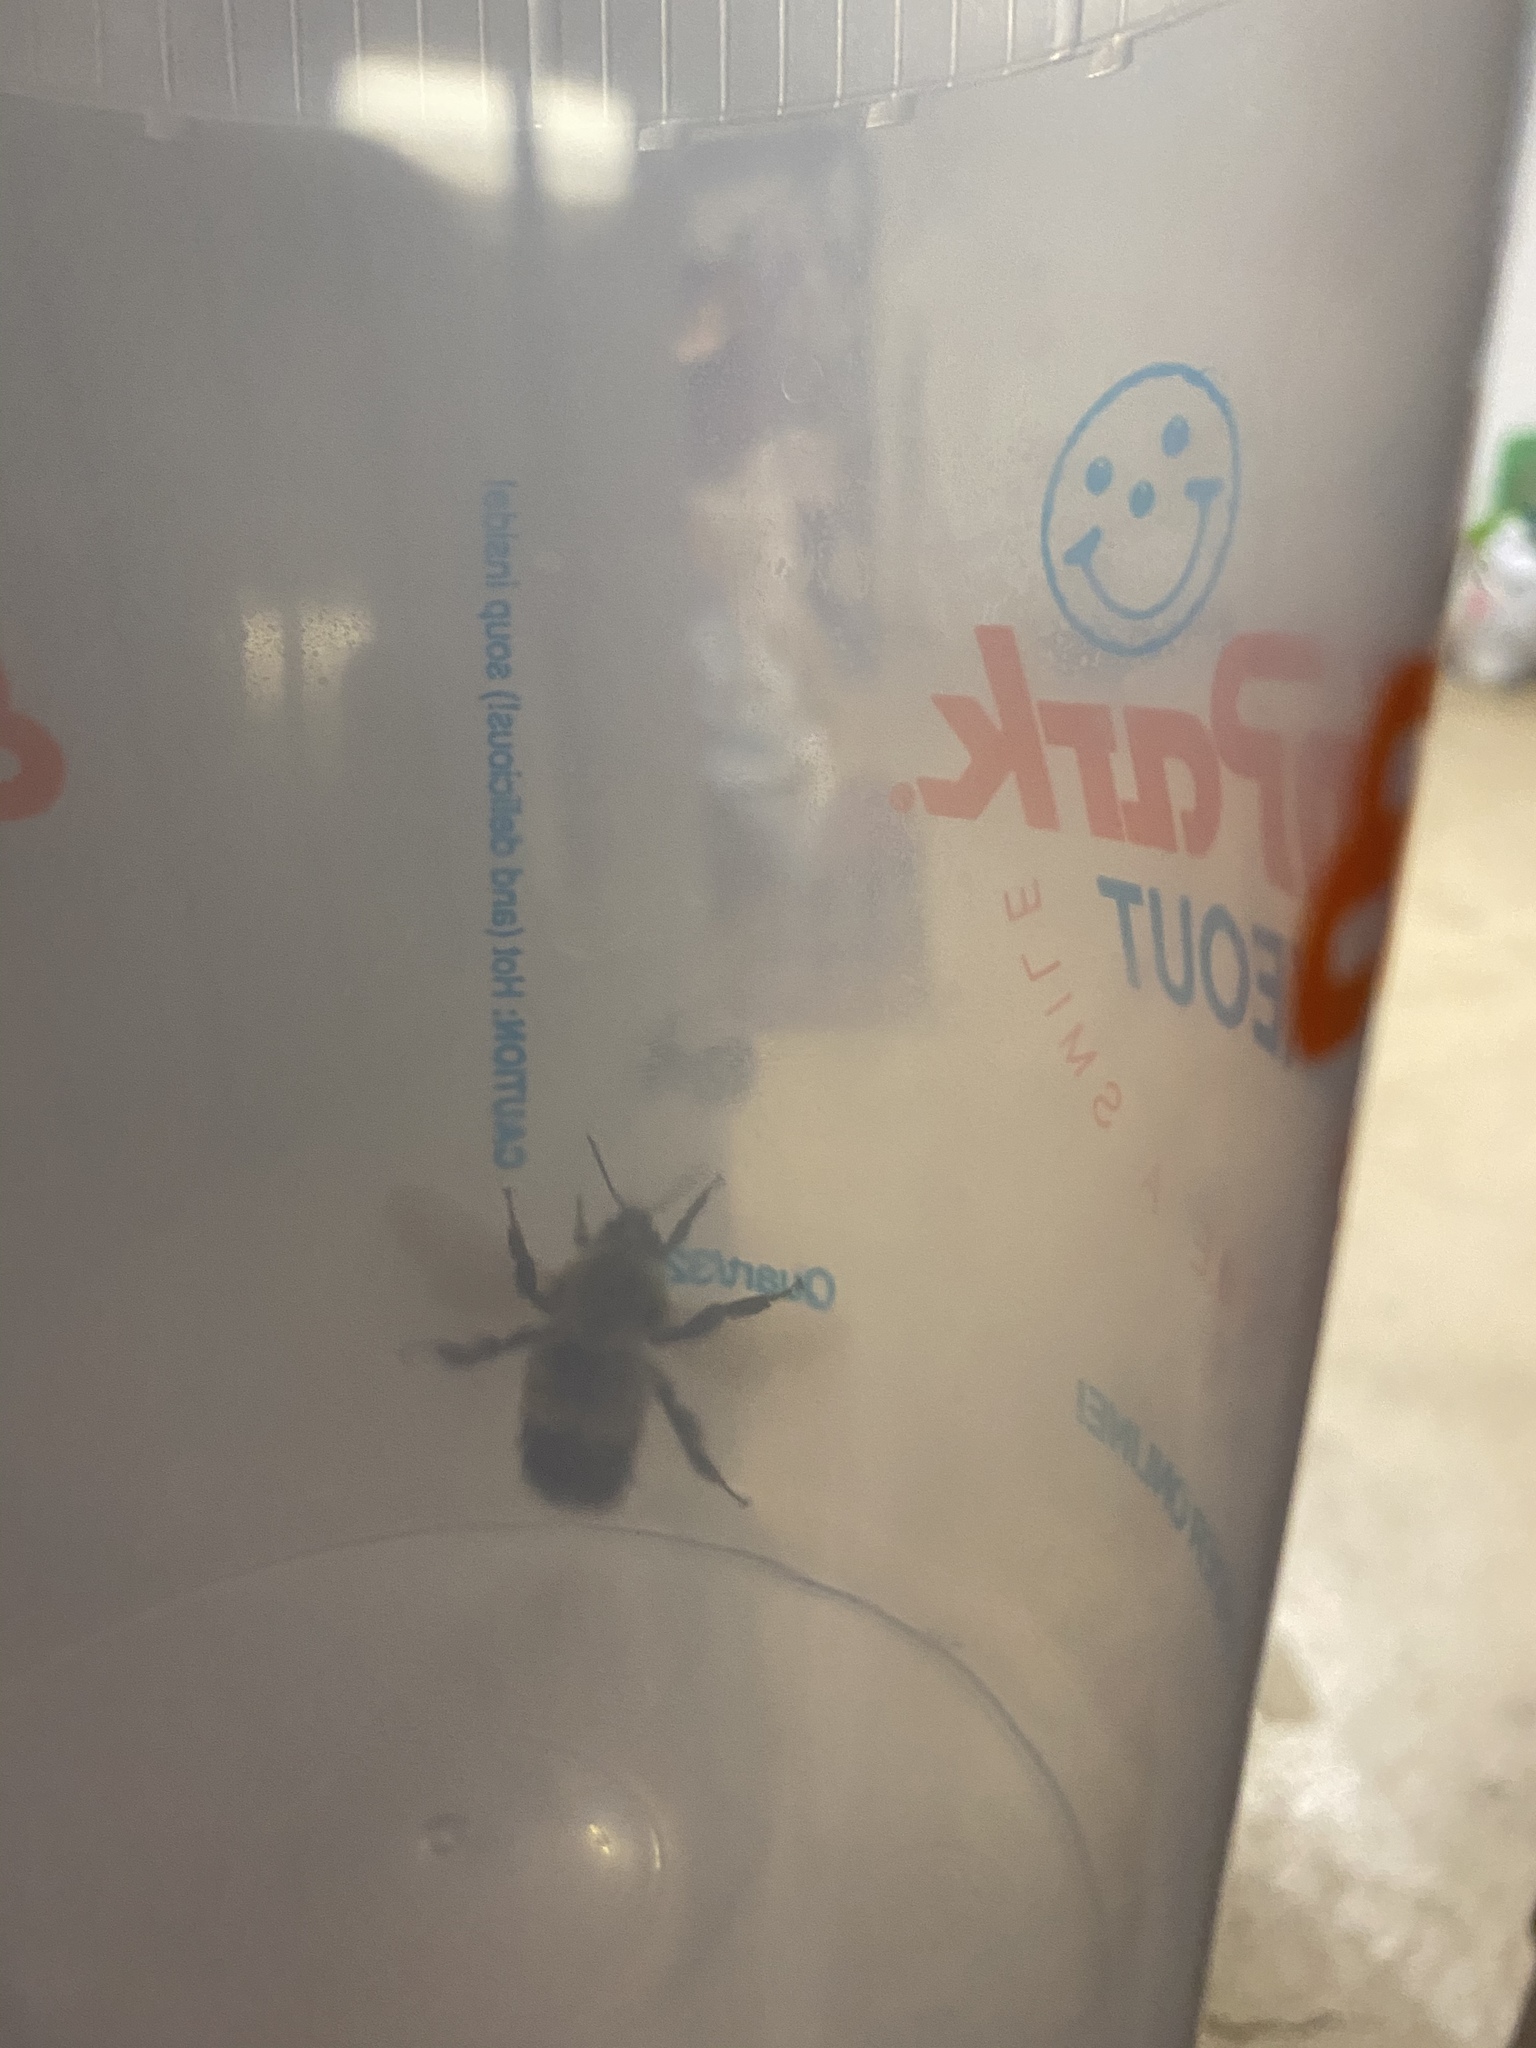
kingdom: Animalia
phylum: Arthropoda
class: Insecta
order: Hymenoptera
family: Apidae
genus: Bombus
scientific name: Bombus
